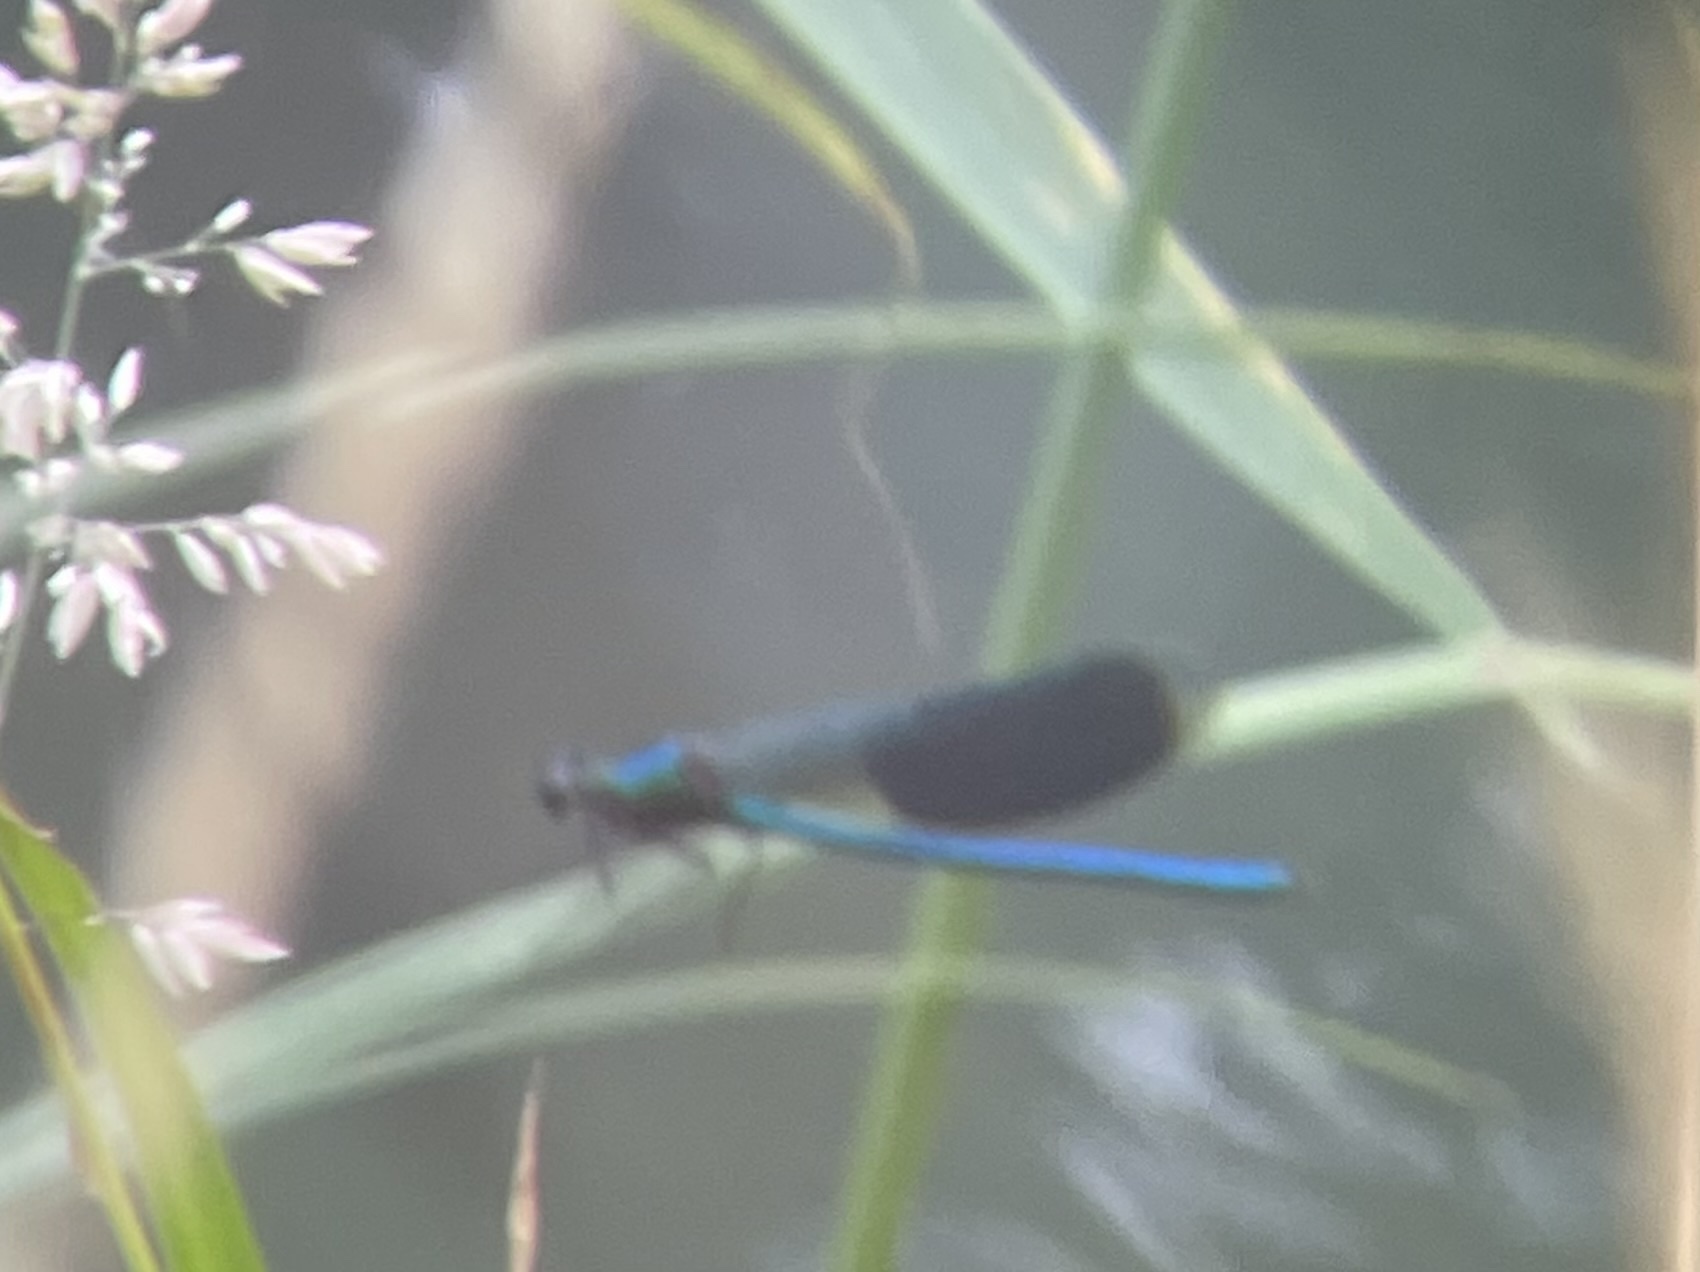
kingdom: Animalia
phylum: Arthropoda
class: Insecta
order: Odonata
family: Calopterygidae
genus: Calopteryx
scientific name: Calopteryx splendens
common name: Banded demoiselle
